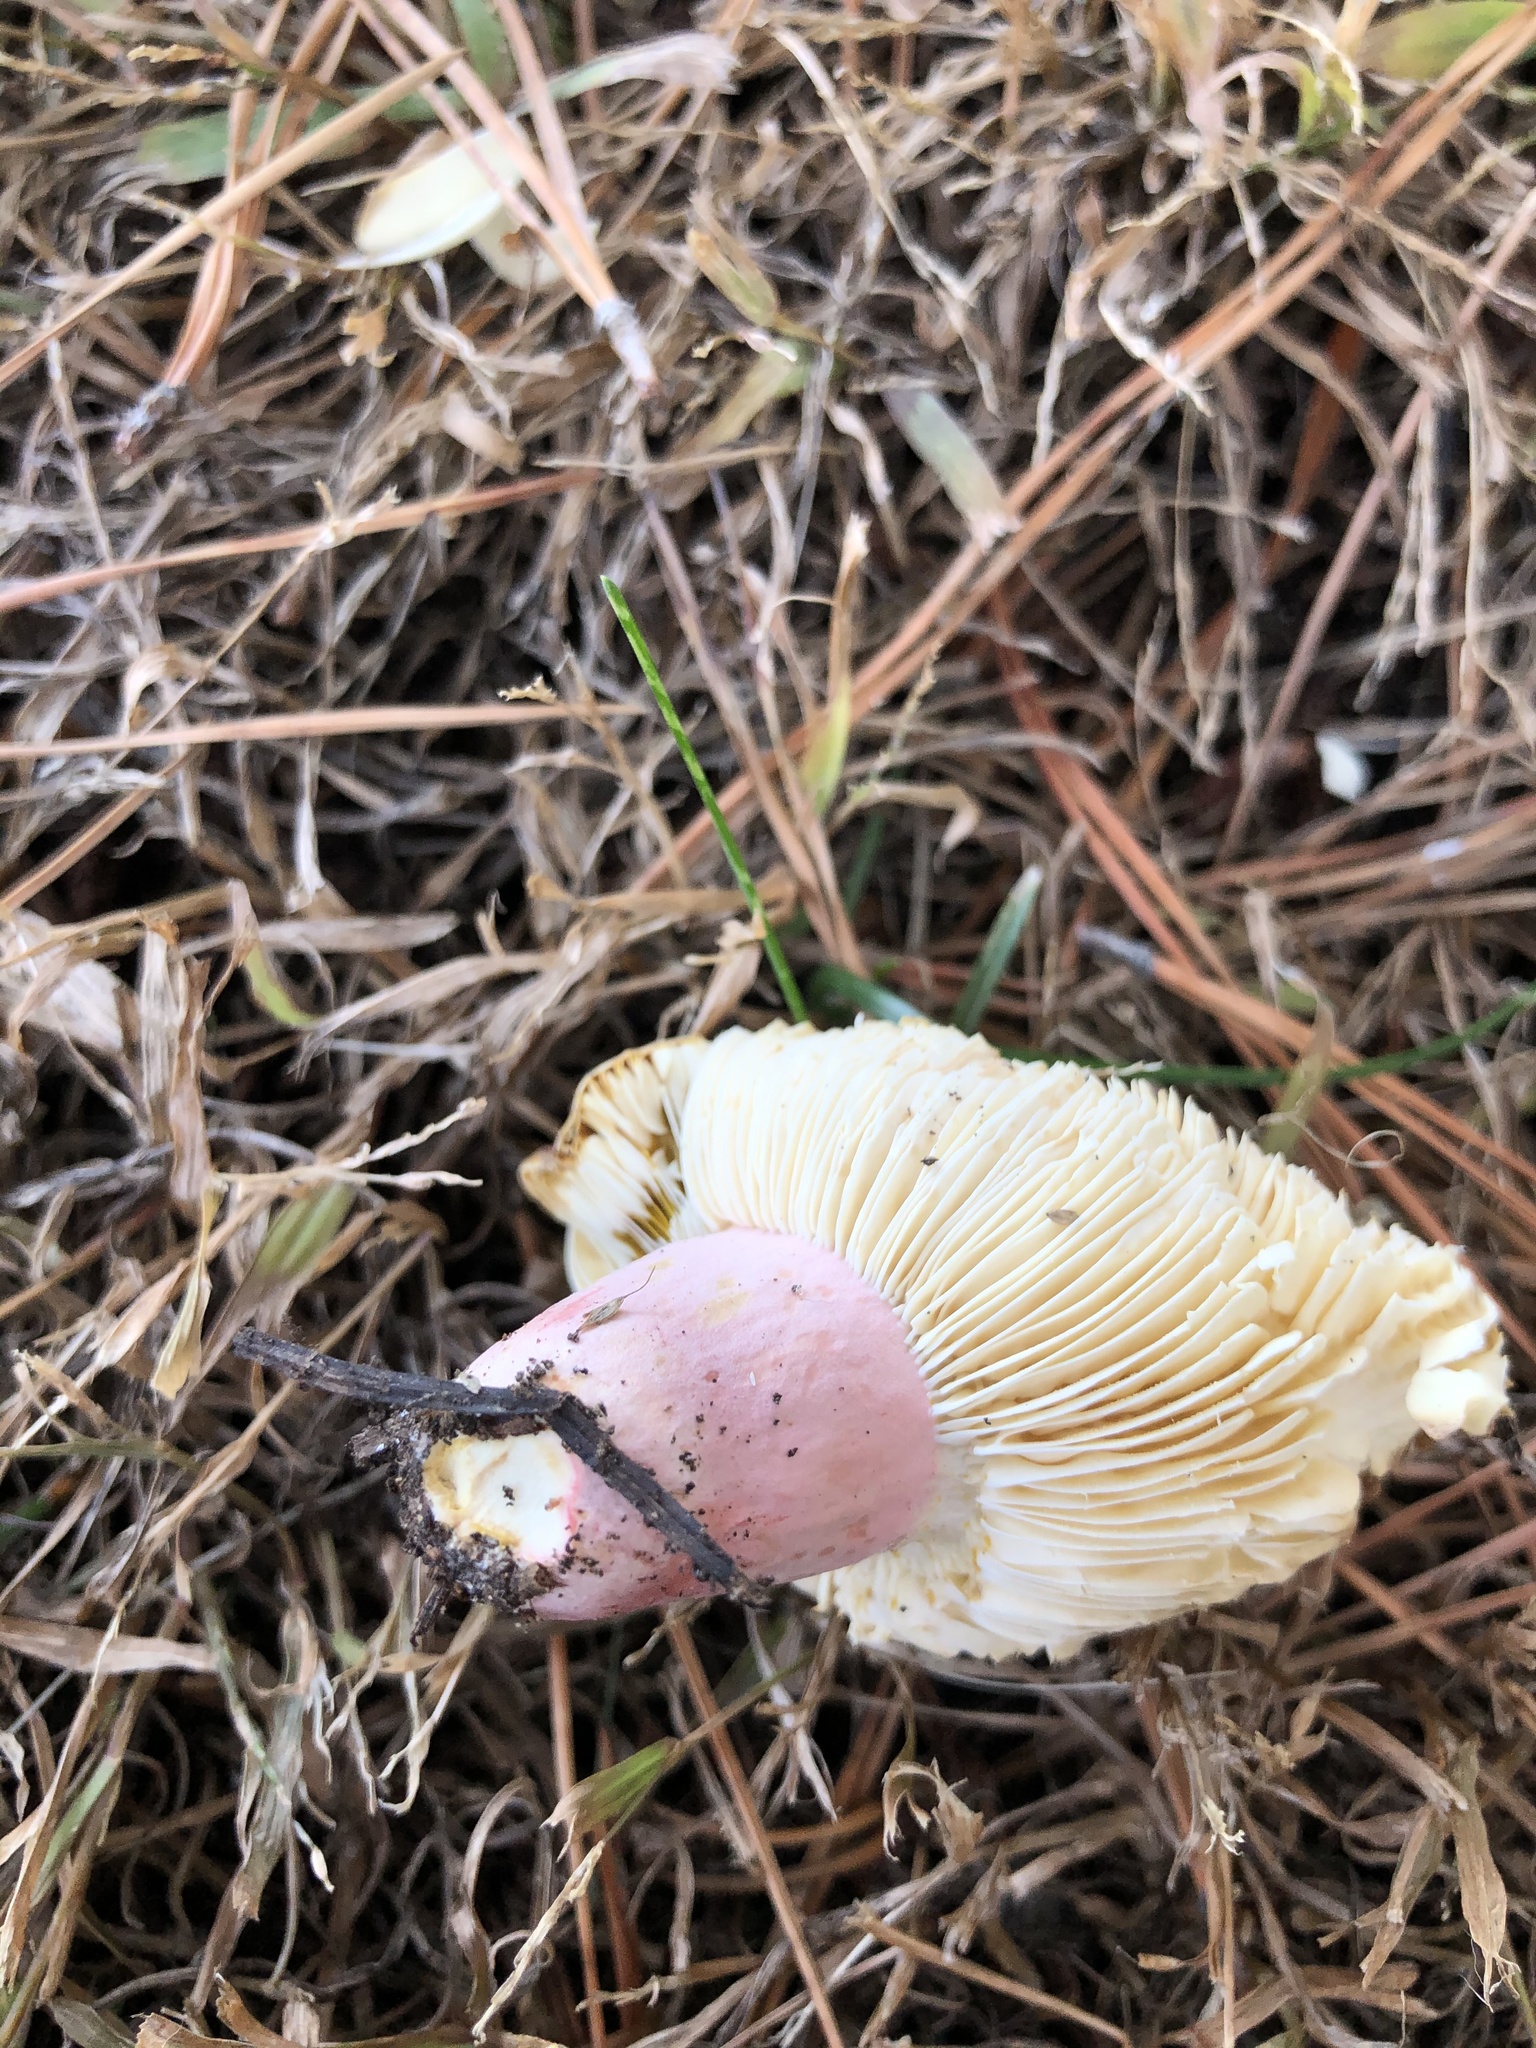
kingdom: Fungi
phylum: Basidiomycota
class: Agaricomycetes
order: Russulales
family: Russulaceae
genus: Russula
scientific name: Russula rhodocephala
